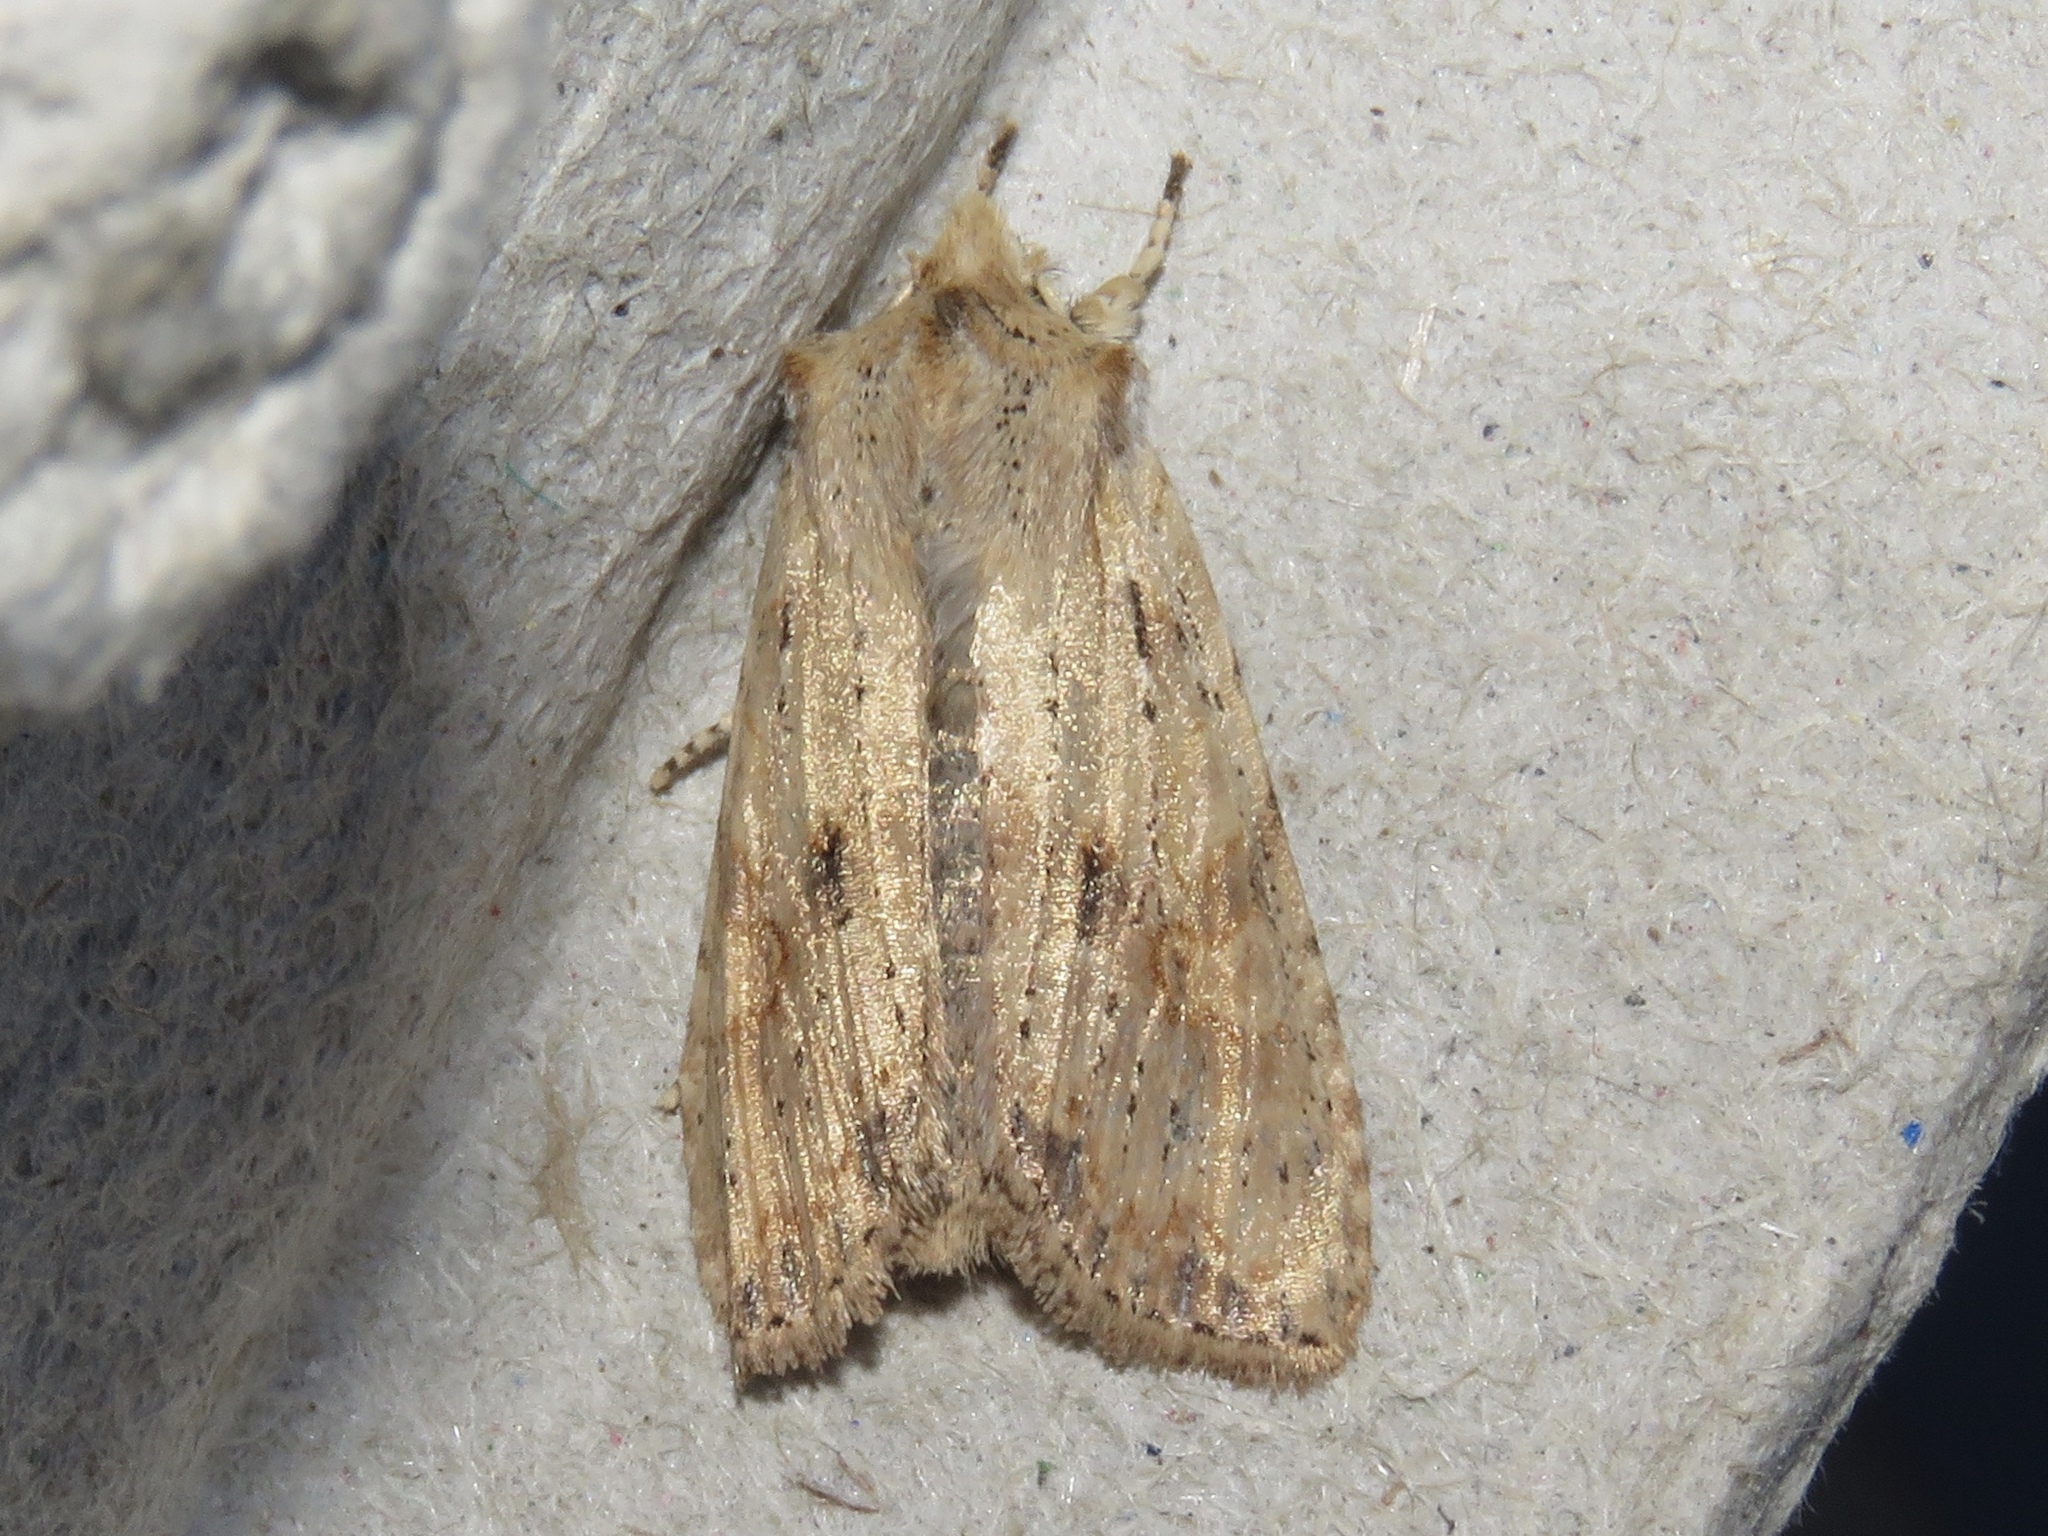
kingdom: Animalia
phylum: Arthropoda
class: Insecta
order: Lepidoptera
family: Noctuidae
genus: Lithophane
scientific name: Lithophane innominata
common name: Nameless pinion moth
